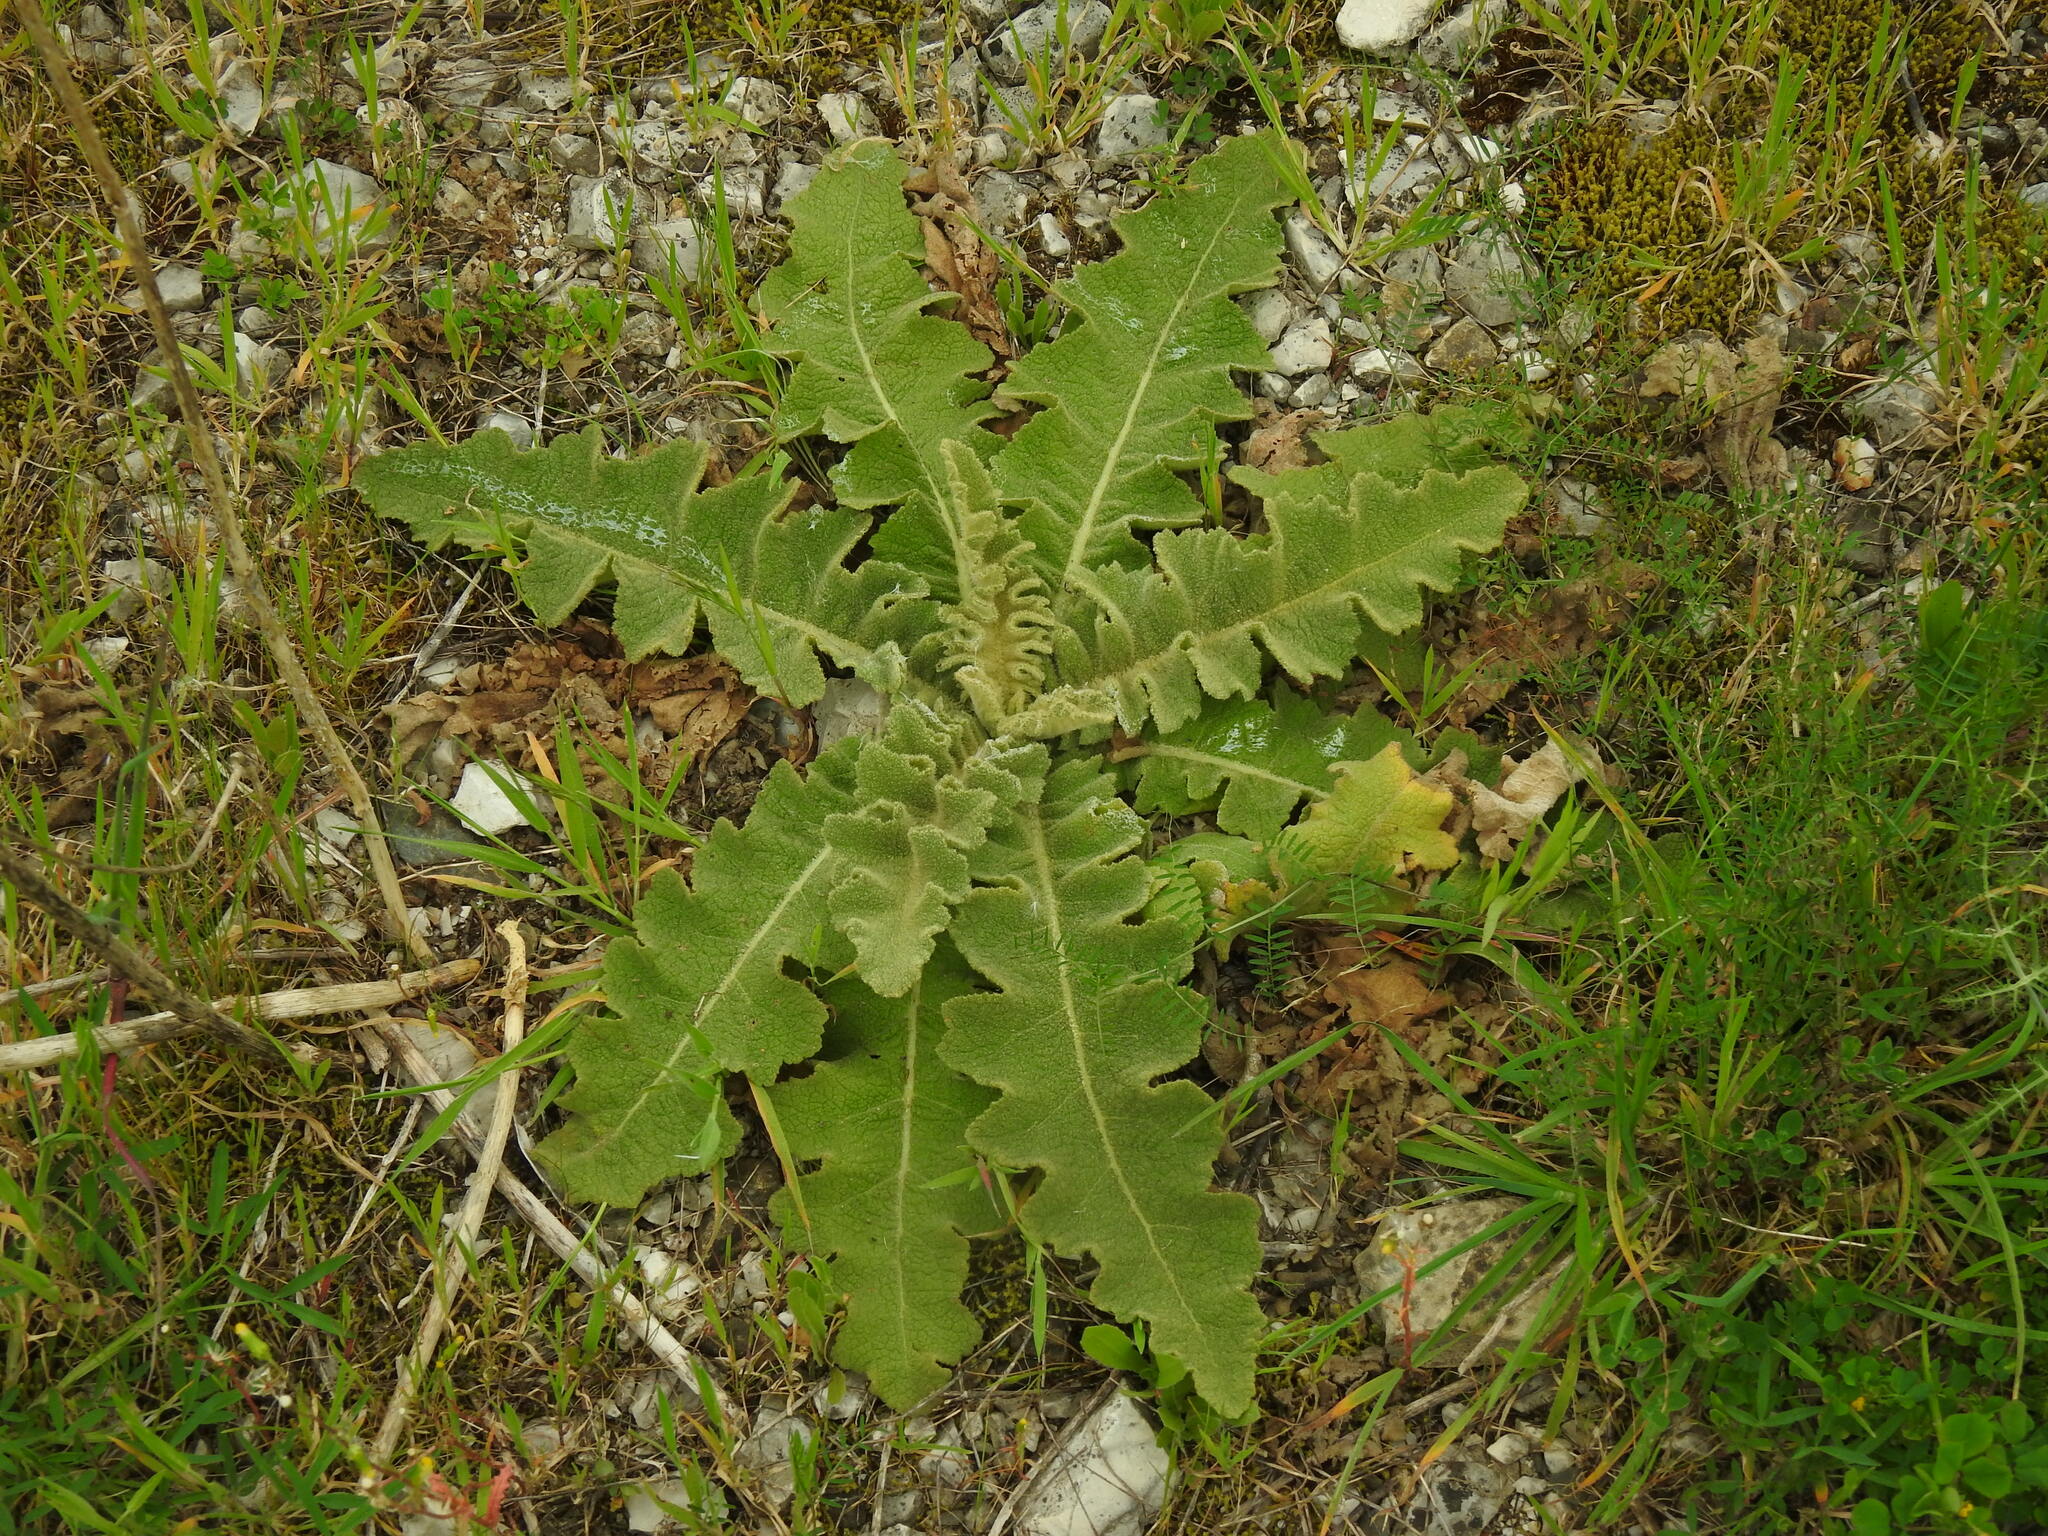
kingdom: Plantae
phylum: Tracheophyta
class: Magnoliopsida
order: Lamiales
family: Scrophulariaceae
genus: Verbascum
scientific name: Verbascum sinuatum
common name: Wavyleaf mullein
